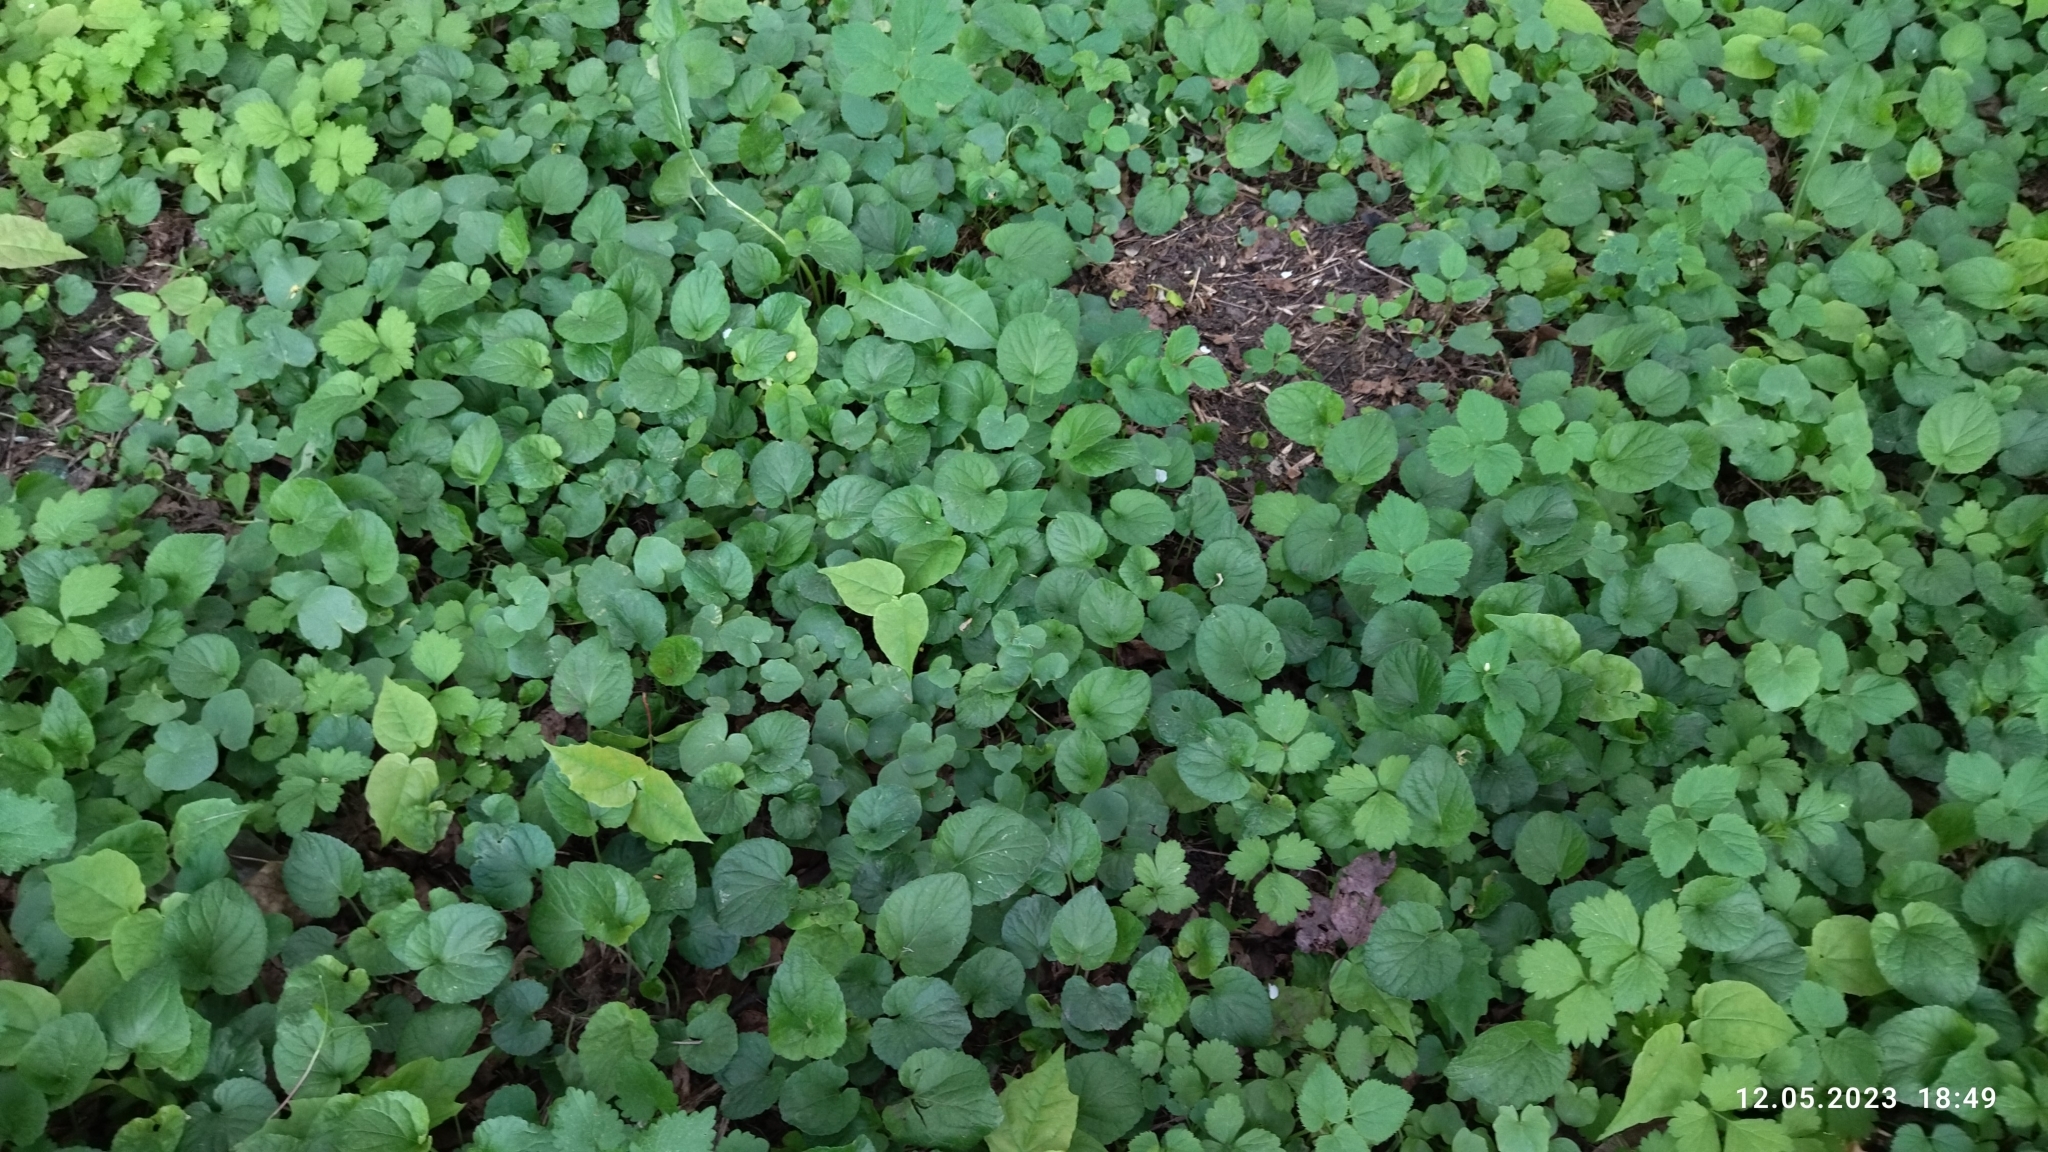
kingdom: Plantae
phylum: Tracheophyta
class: Magnoliopsida
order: Malpighiales
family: Violaceae
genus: Viola
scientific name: Viola odorata
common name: Sweet violet
